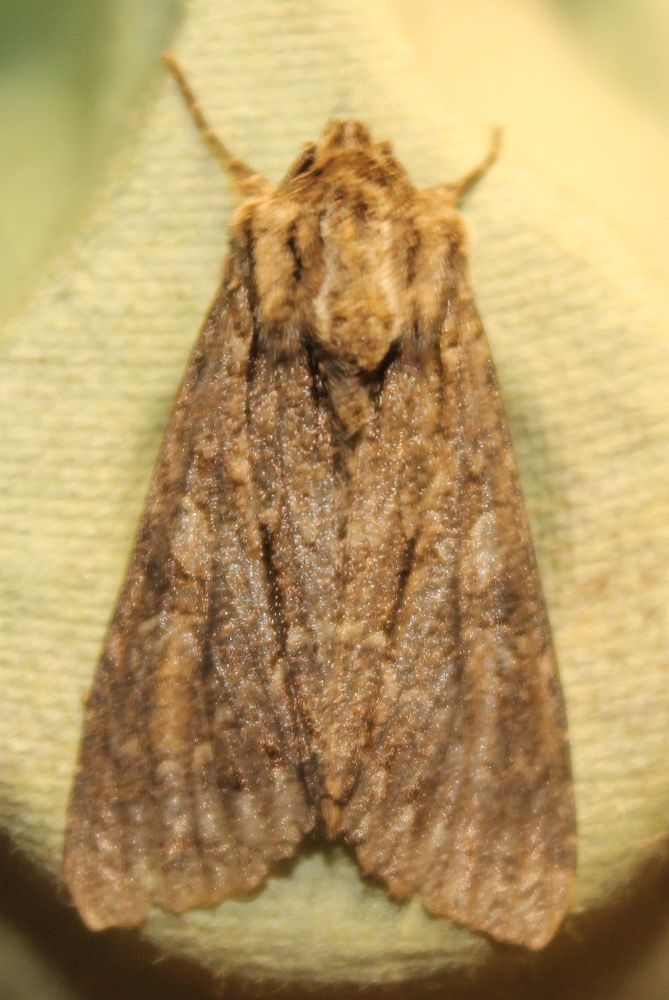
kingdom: Animalia
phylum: Arthropoda
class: Insecta
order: Lepidoptera
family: Noctuidae
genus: Apamea
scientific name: Apamea monoglypha
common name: Dark arches
